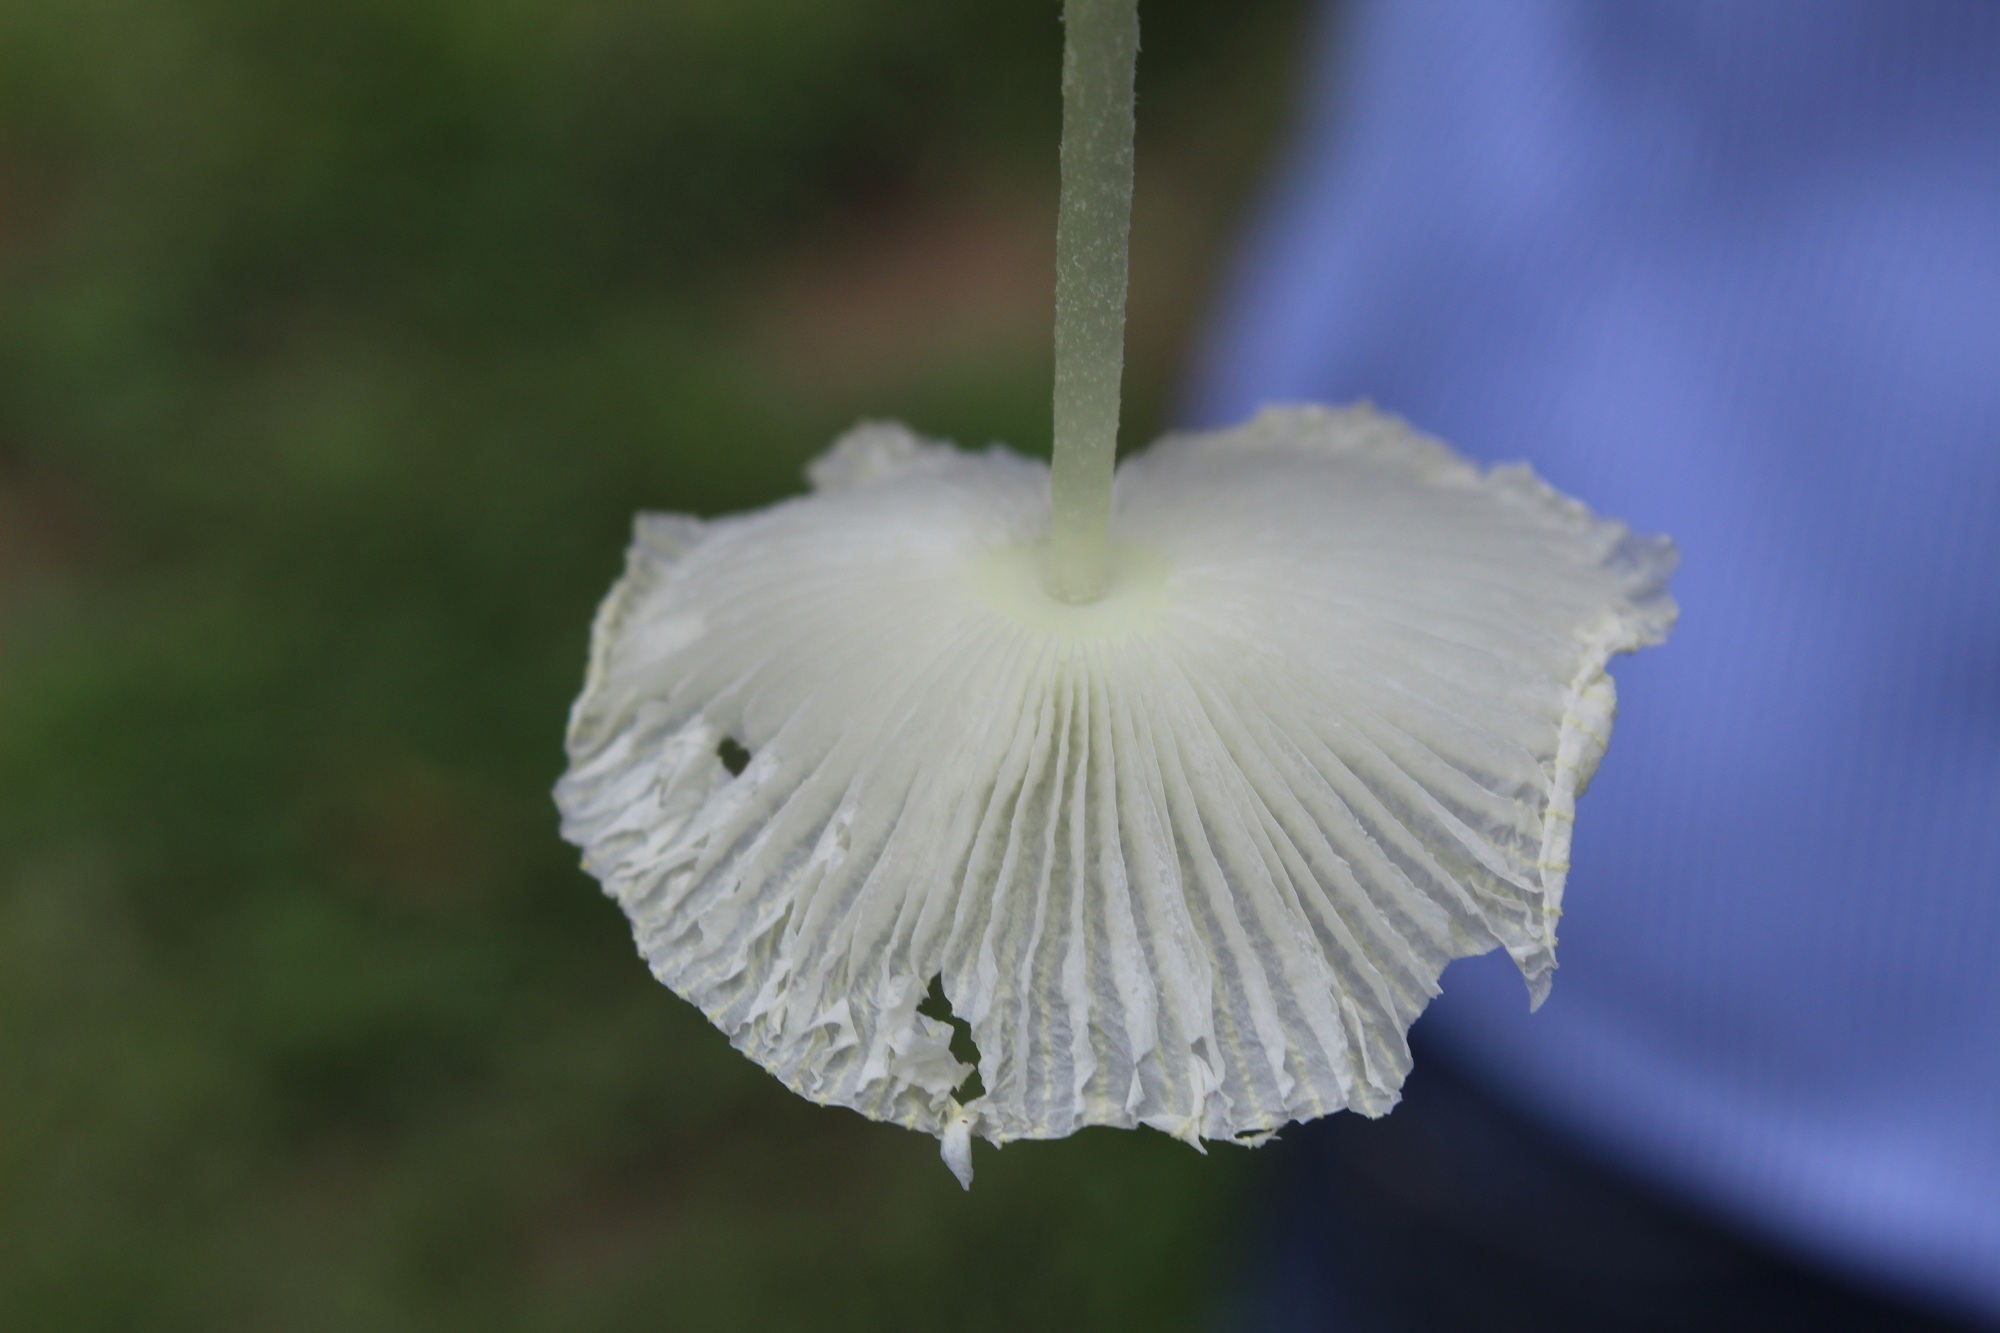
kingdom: Fungi
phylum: Basidiomycota
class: Agaricomycetes
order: Agaricales
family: Agaricaceae
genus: Leucocoprinus
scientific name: Leucocoprinus fragilissimus
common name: Fragile dapperling
